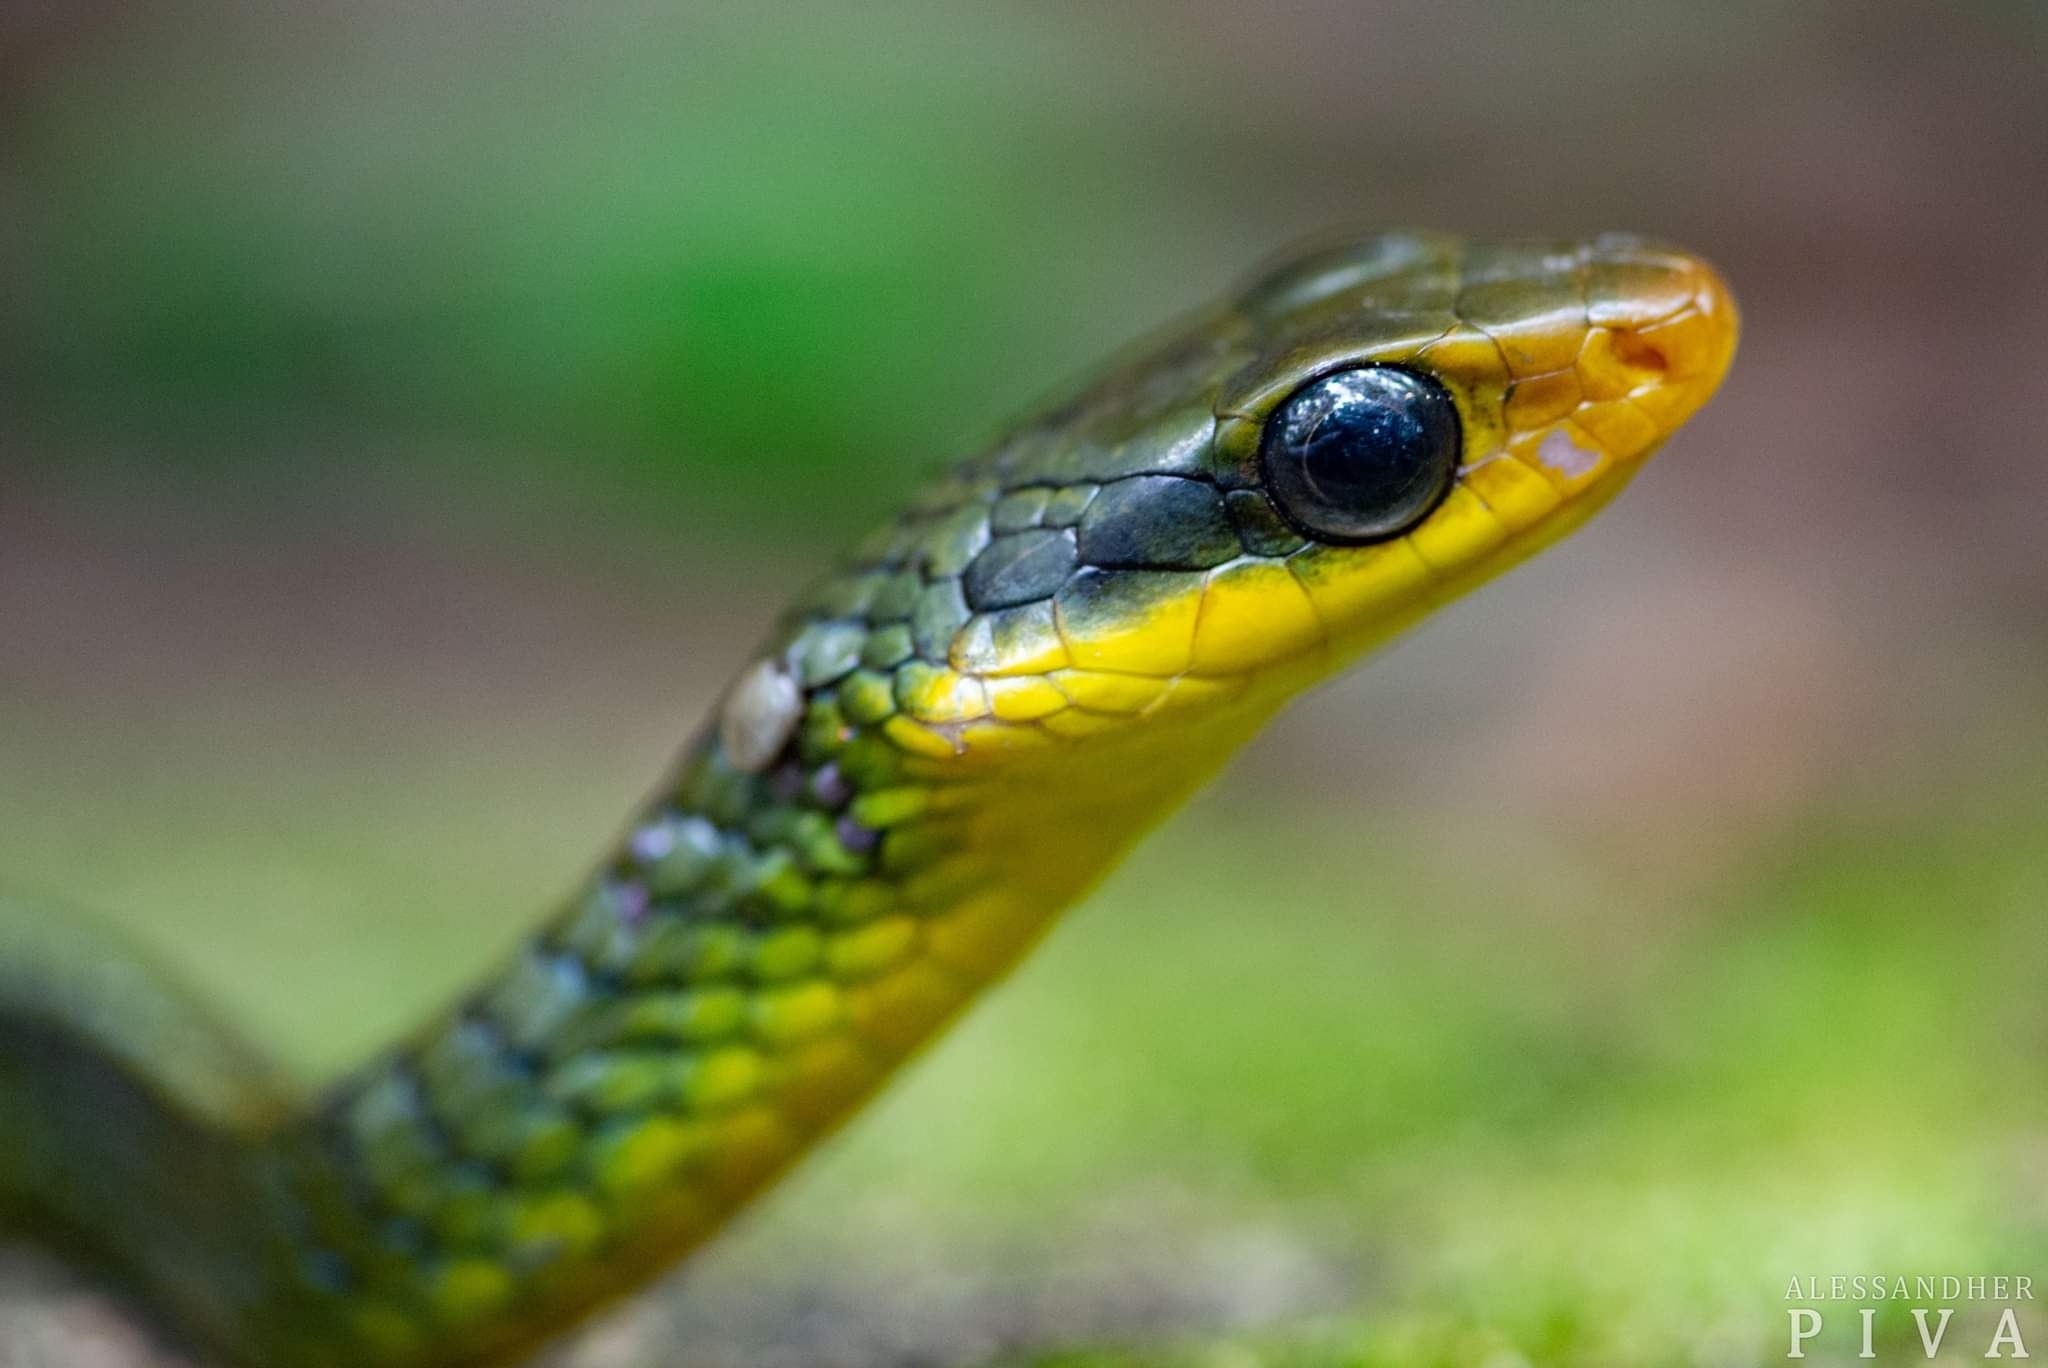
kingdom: Animalia
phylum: Chordata
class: Squamata
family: Colubridae
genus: Chironius
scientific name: Chironius bicarinatus
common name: Two-headed sipo
